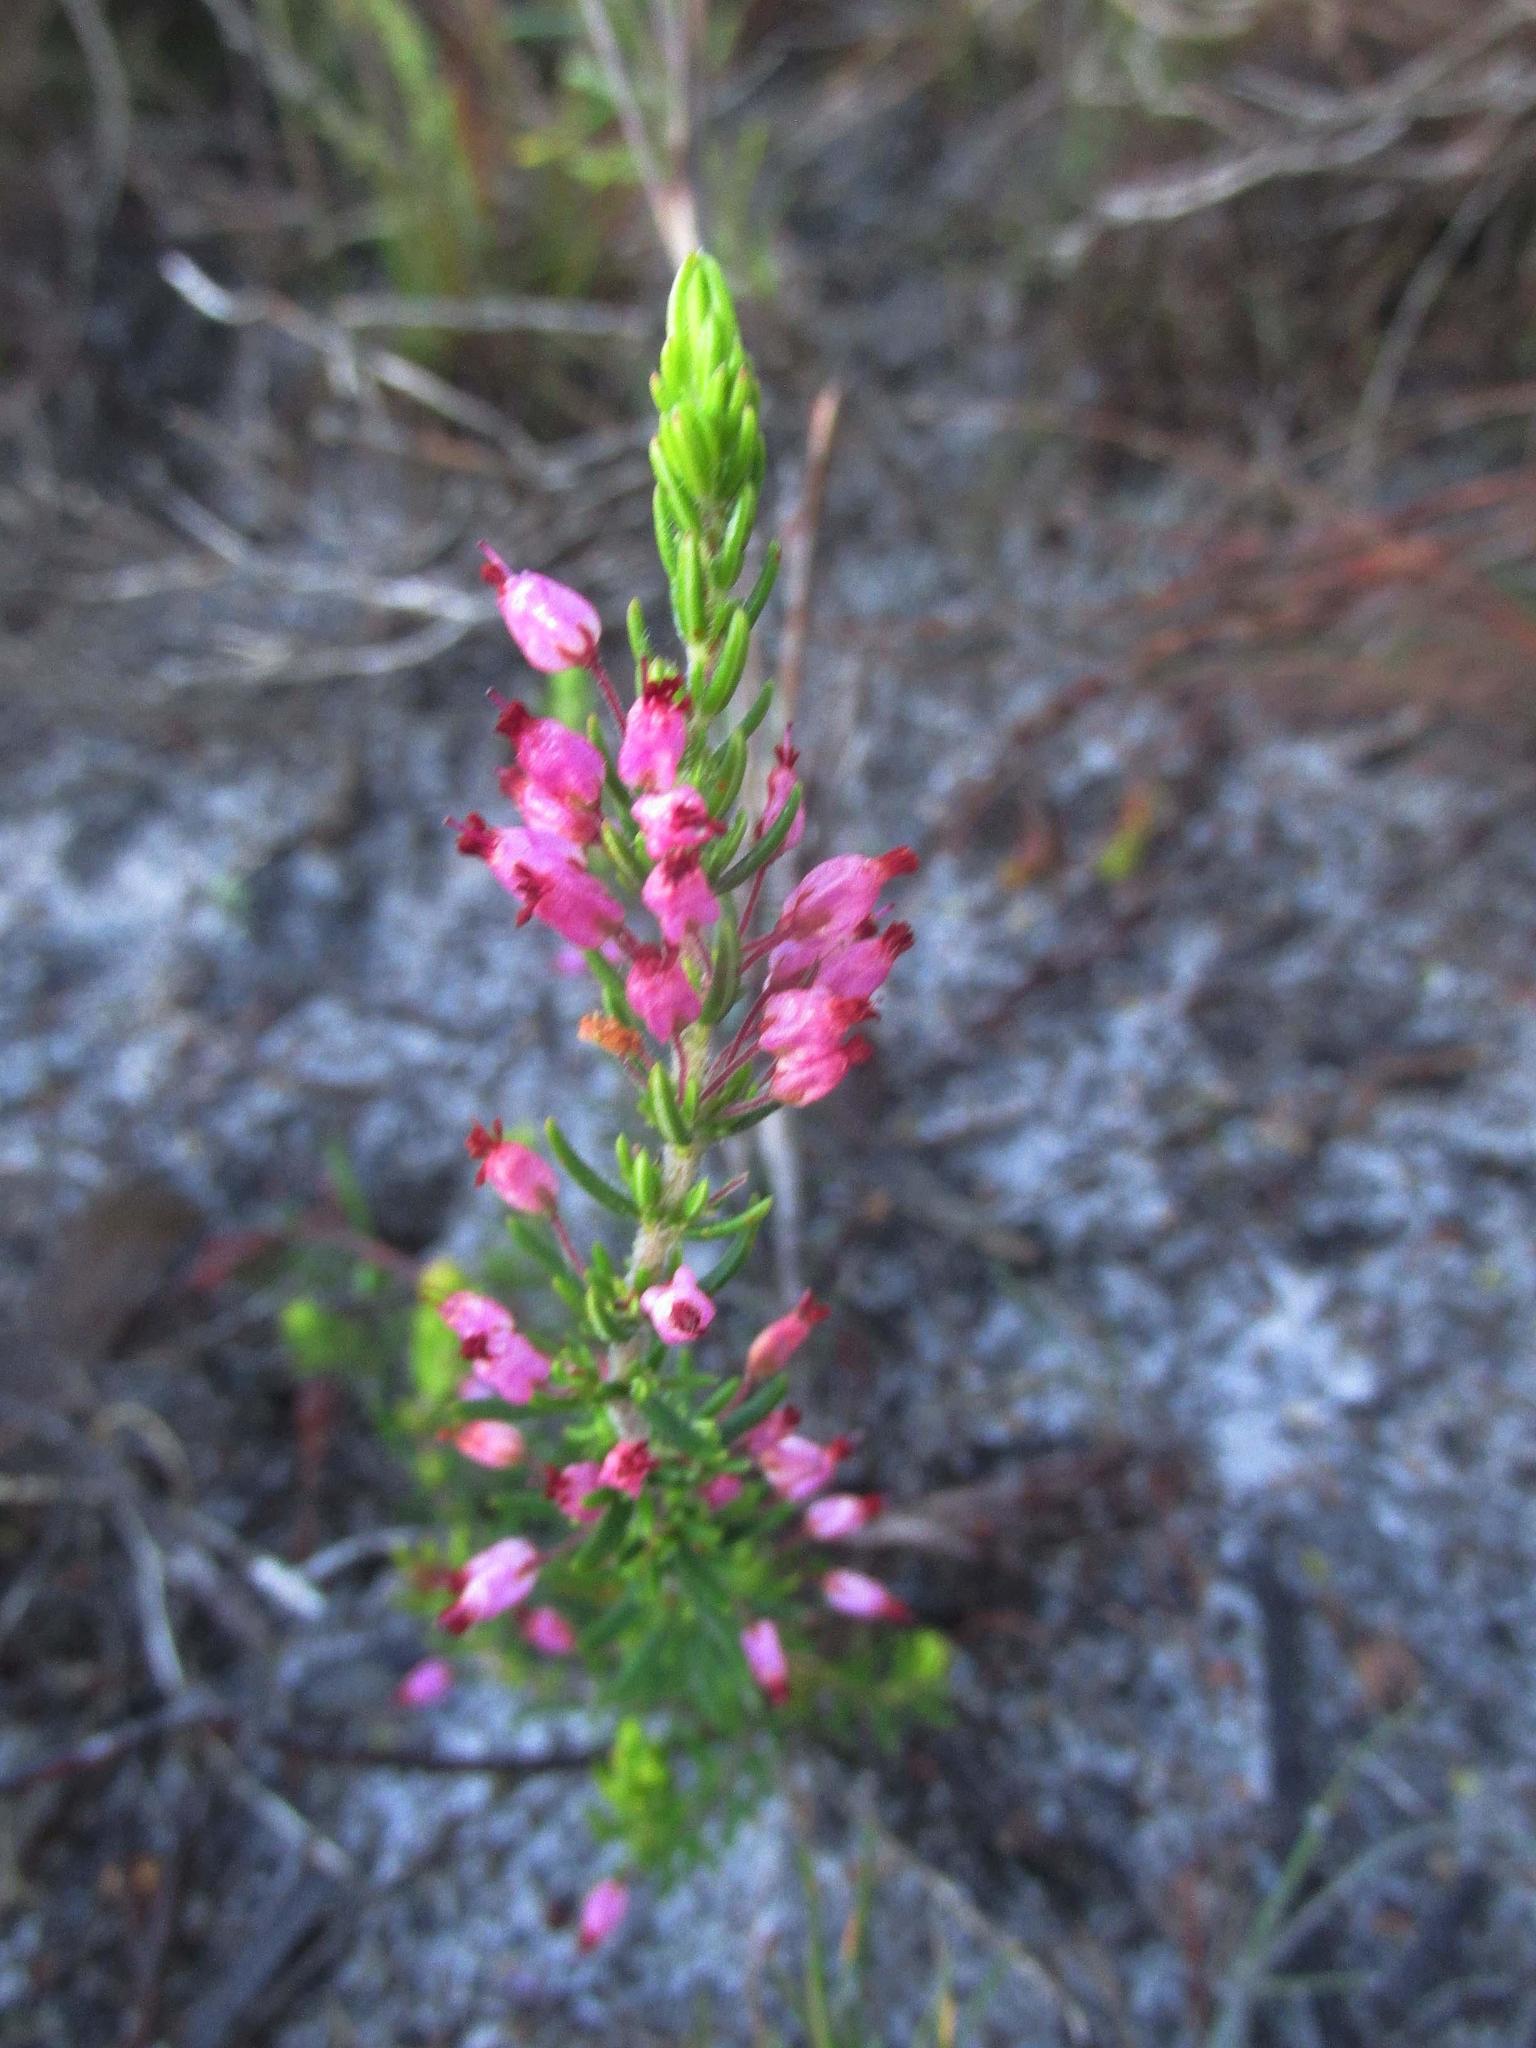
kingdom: Plantae
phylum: Tracheophyta
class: Magnoliopsida
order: Ericales
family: Ericaceae
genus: Erica
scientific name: Erica nudiflora
